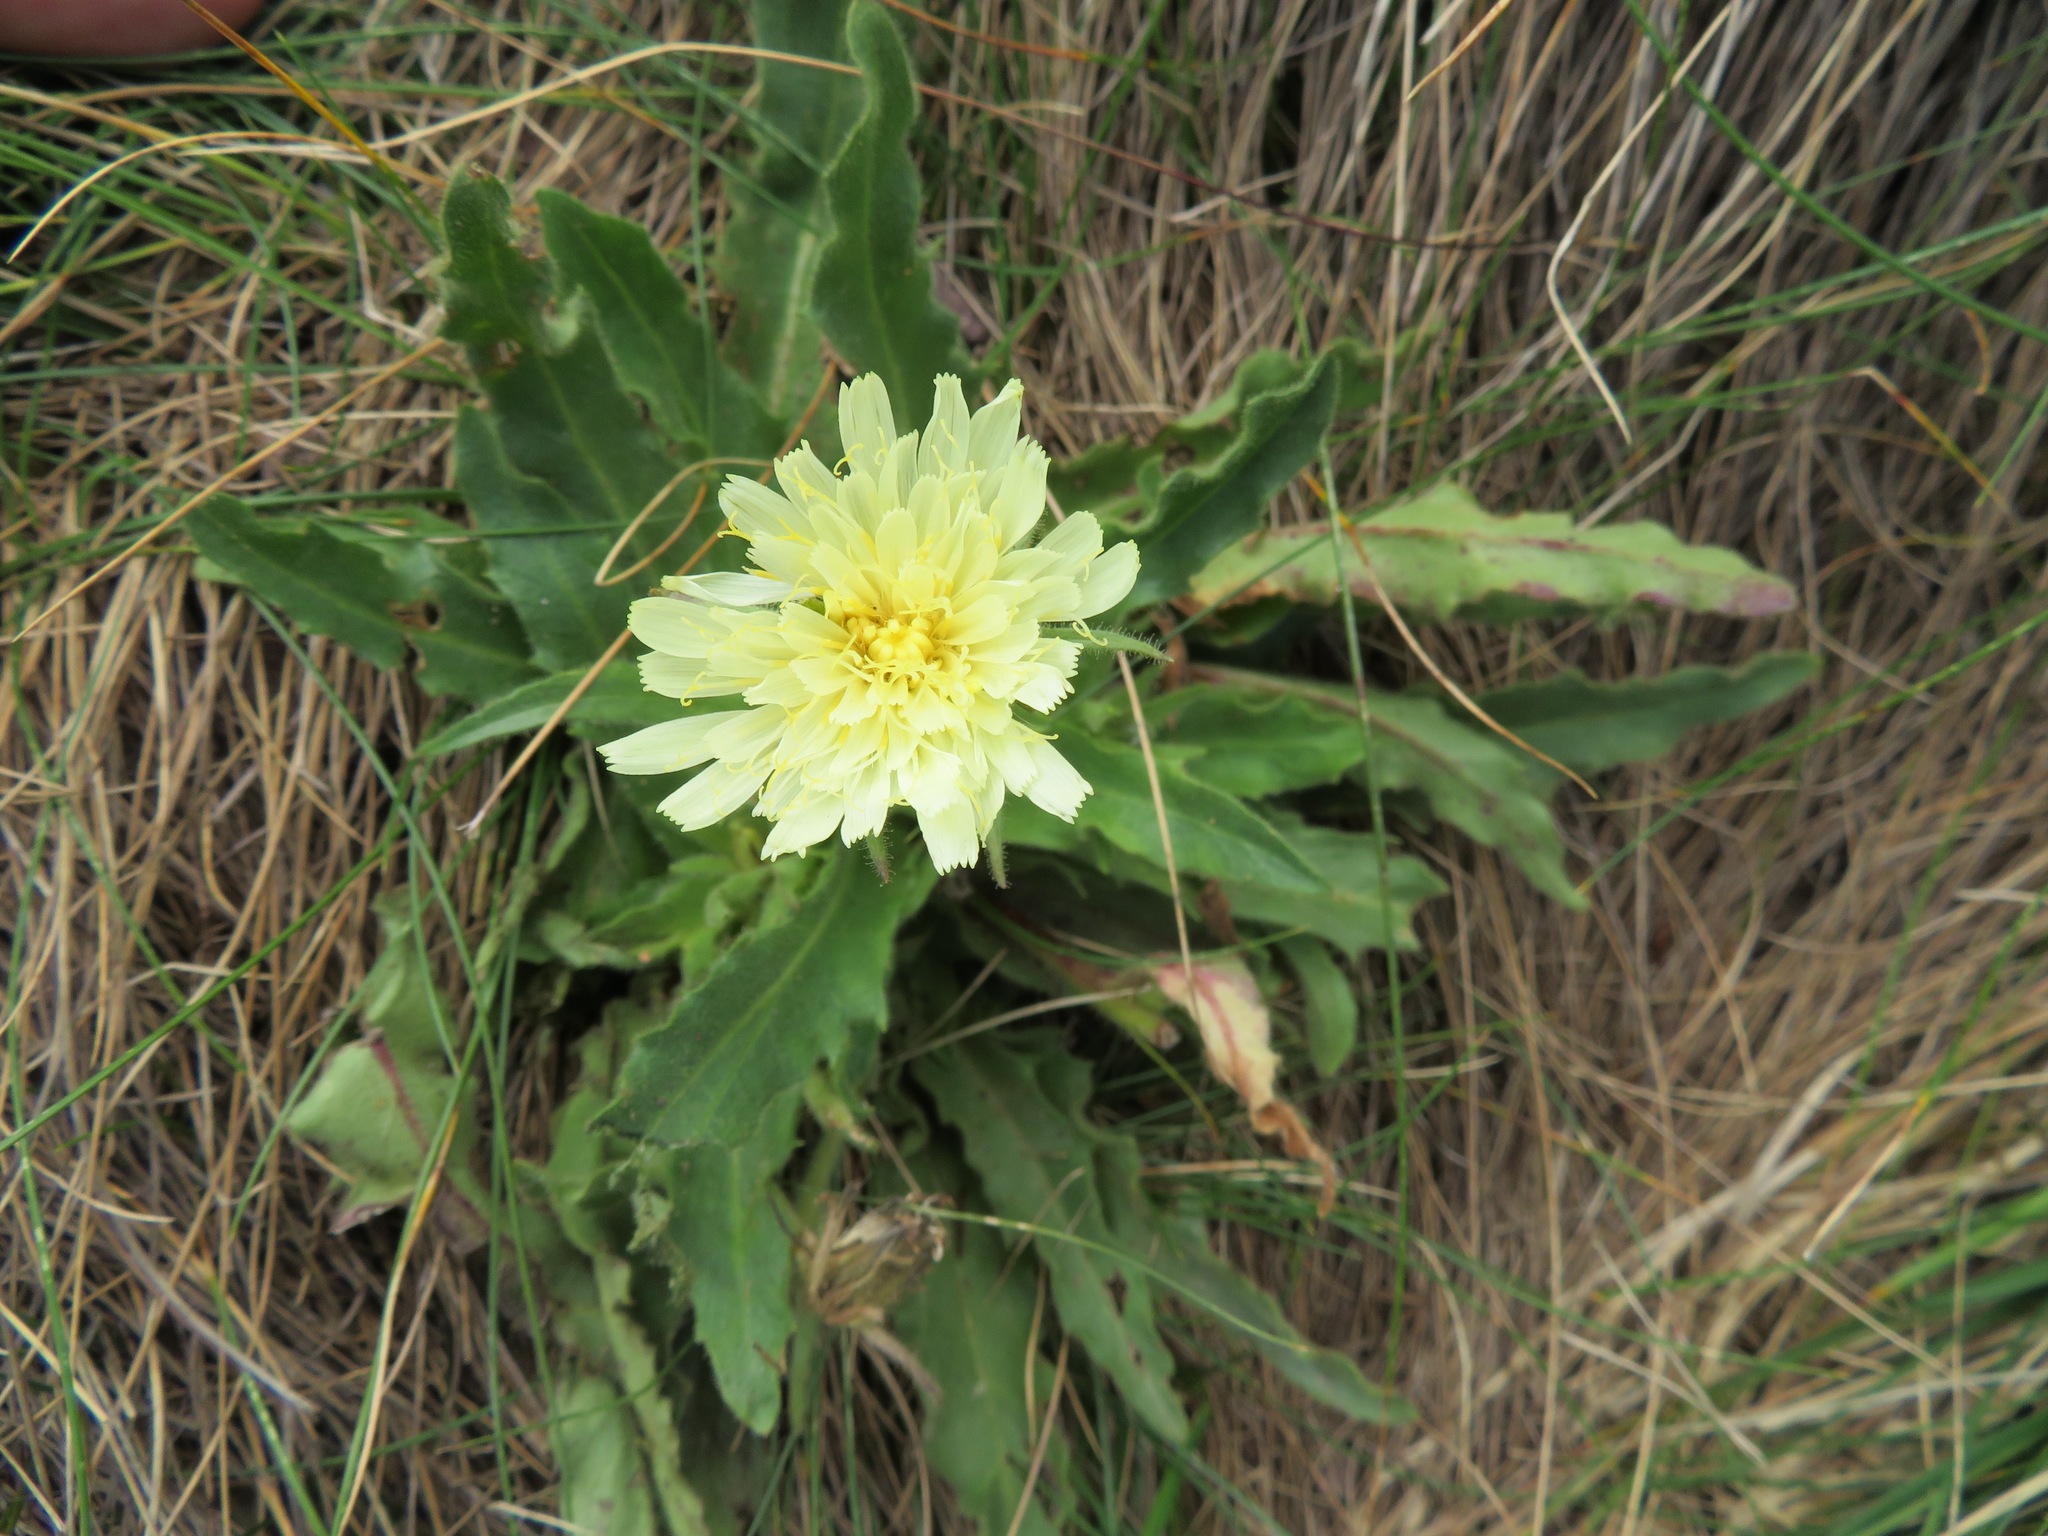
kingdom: Plantae
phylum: Tracheophyta
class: Magnoliopsida
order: Asterales
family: Asteraceae
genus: Schlagintweitia
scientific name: Schlagintweitia intybacea
